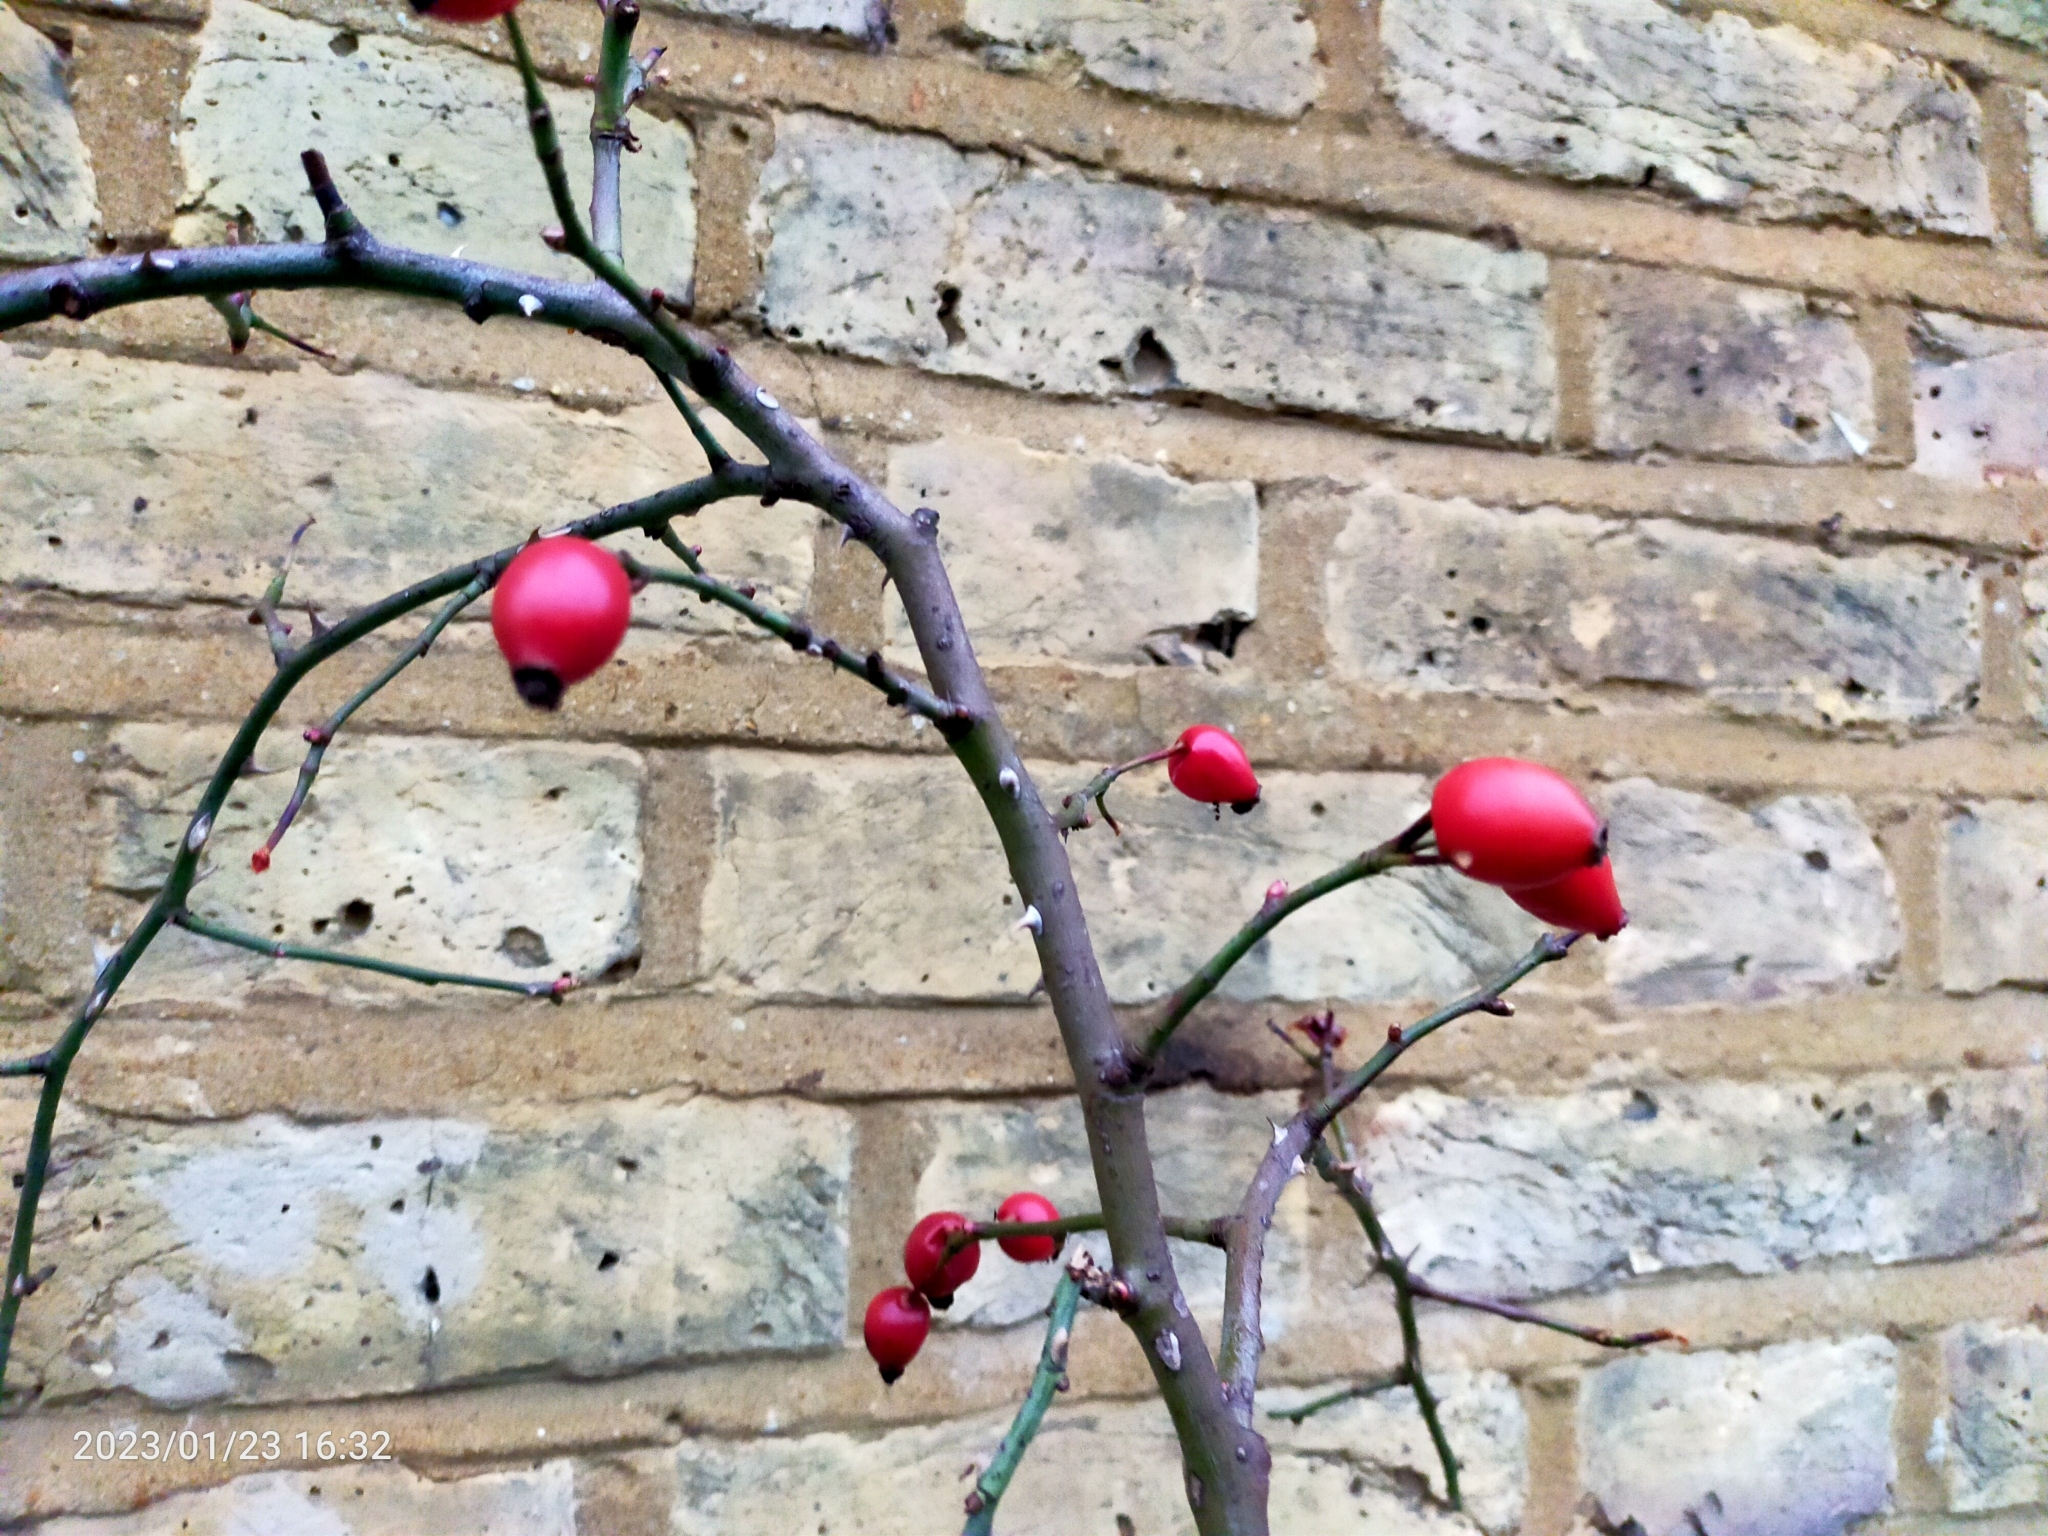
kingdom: Plantae
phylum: Tracheophyta
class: Magnoliopsida
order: Rosales
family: Rosaceae
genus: Rosa
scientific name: Rosa canina
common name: Dog rose
